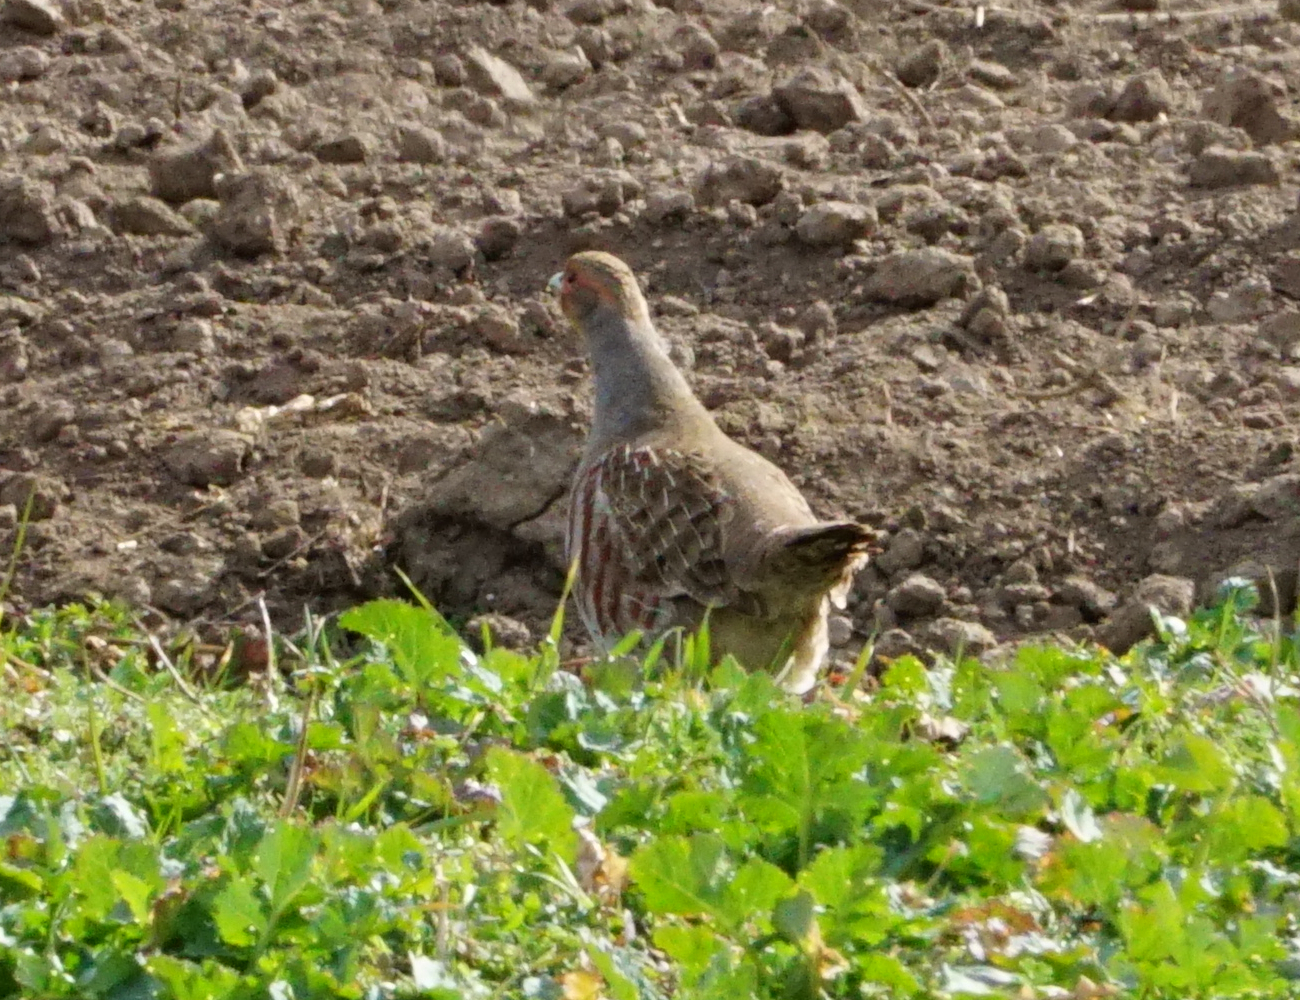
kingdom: Animalia
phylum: Chordata
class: Aves
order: Galliformes
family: Phasianidae
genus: Perdix
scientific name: Perdix perdix
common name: Grey partridge
